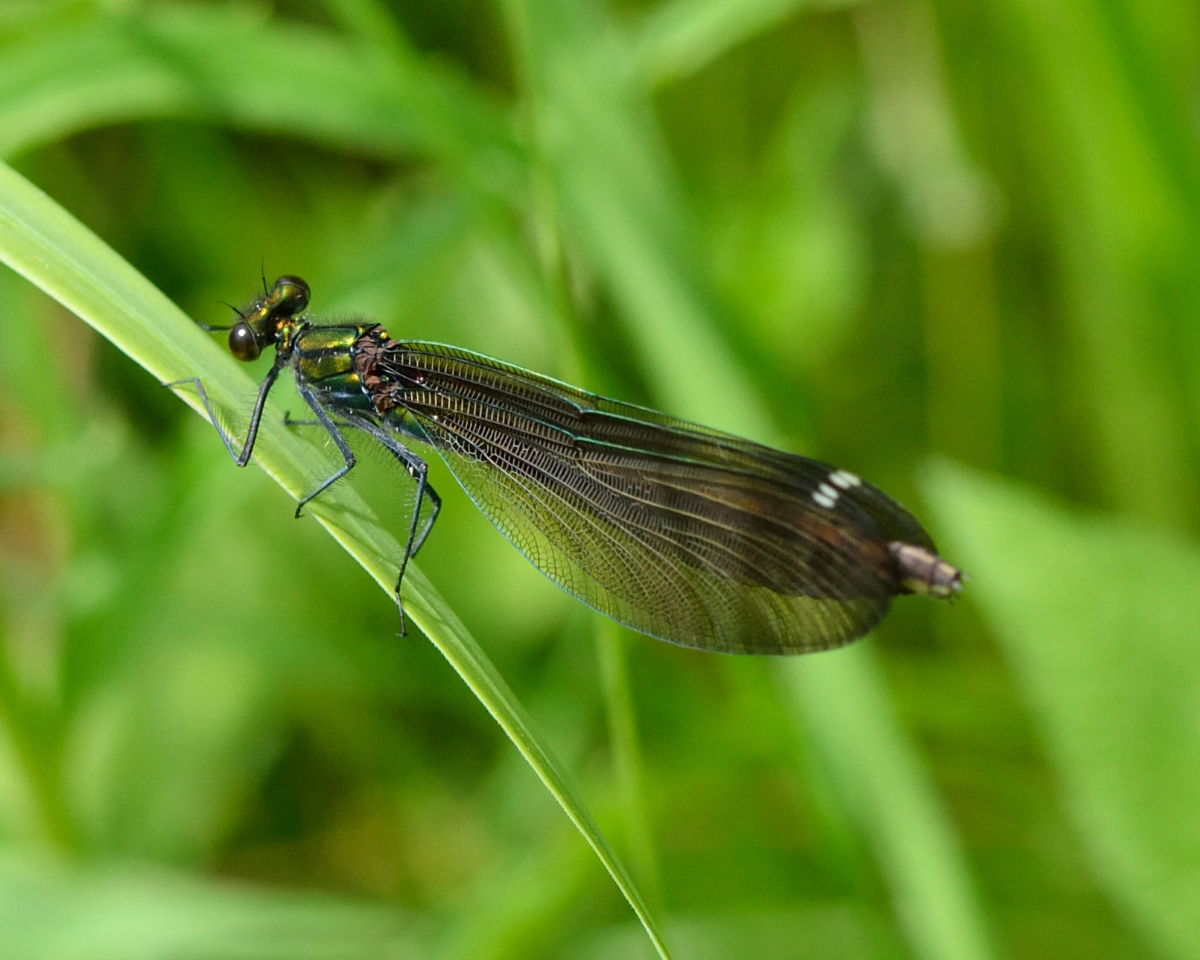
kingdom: Animalia
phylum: Arthropoda
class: Insecta
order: Odonata
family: Calopterygidae
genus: Calopteryx
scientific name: Calopteryx virgo
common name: Beautiful demoiselle
